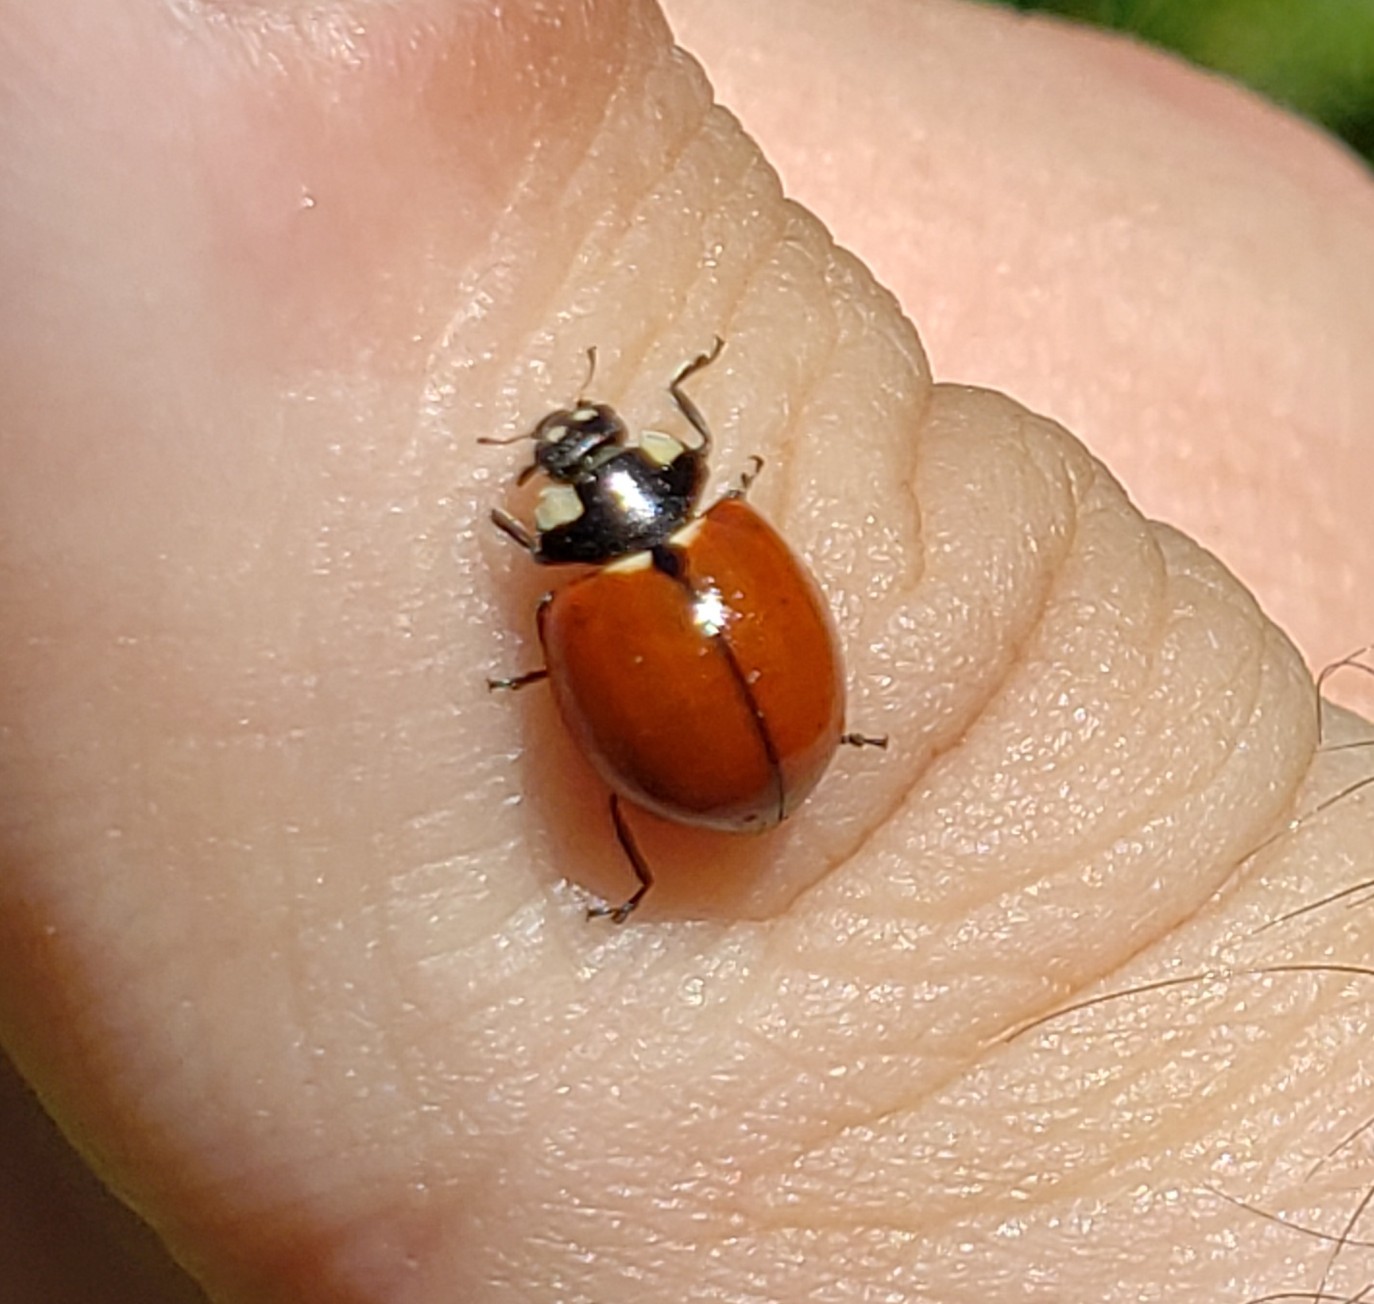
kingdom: Animalia
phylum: Arthropoda
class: Insecta
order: Coleoptera
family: Coccinellidae
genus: Coccinella
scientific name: Coccinella californica
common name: Lady beetle
